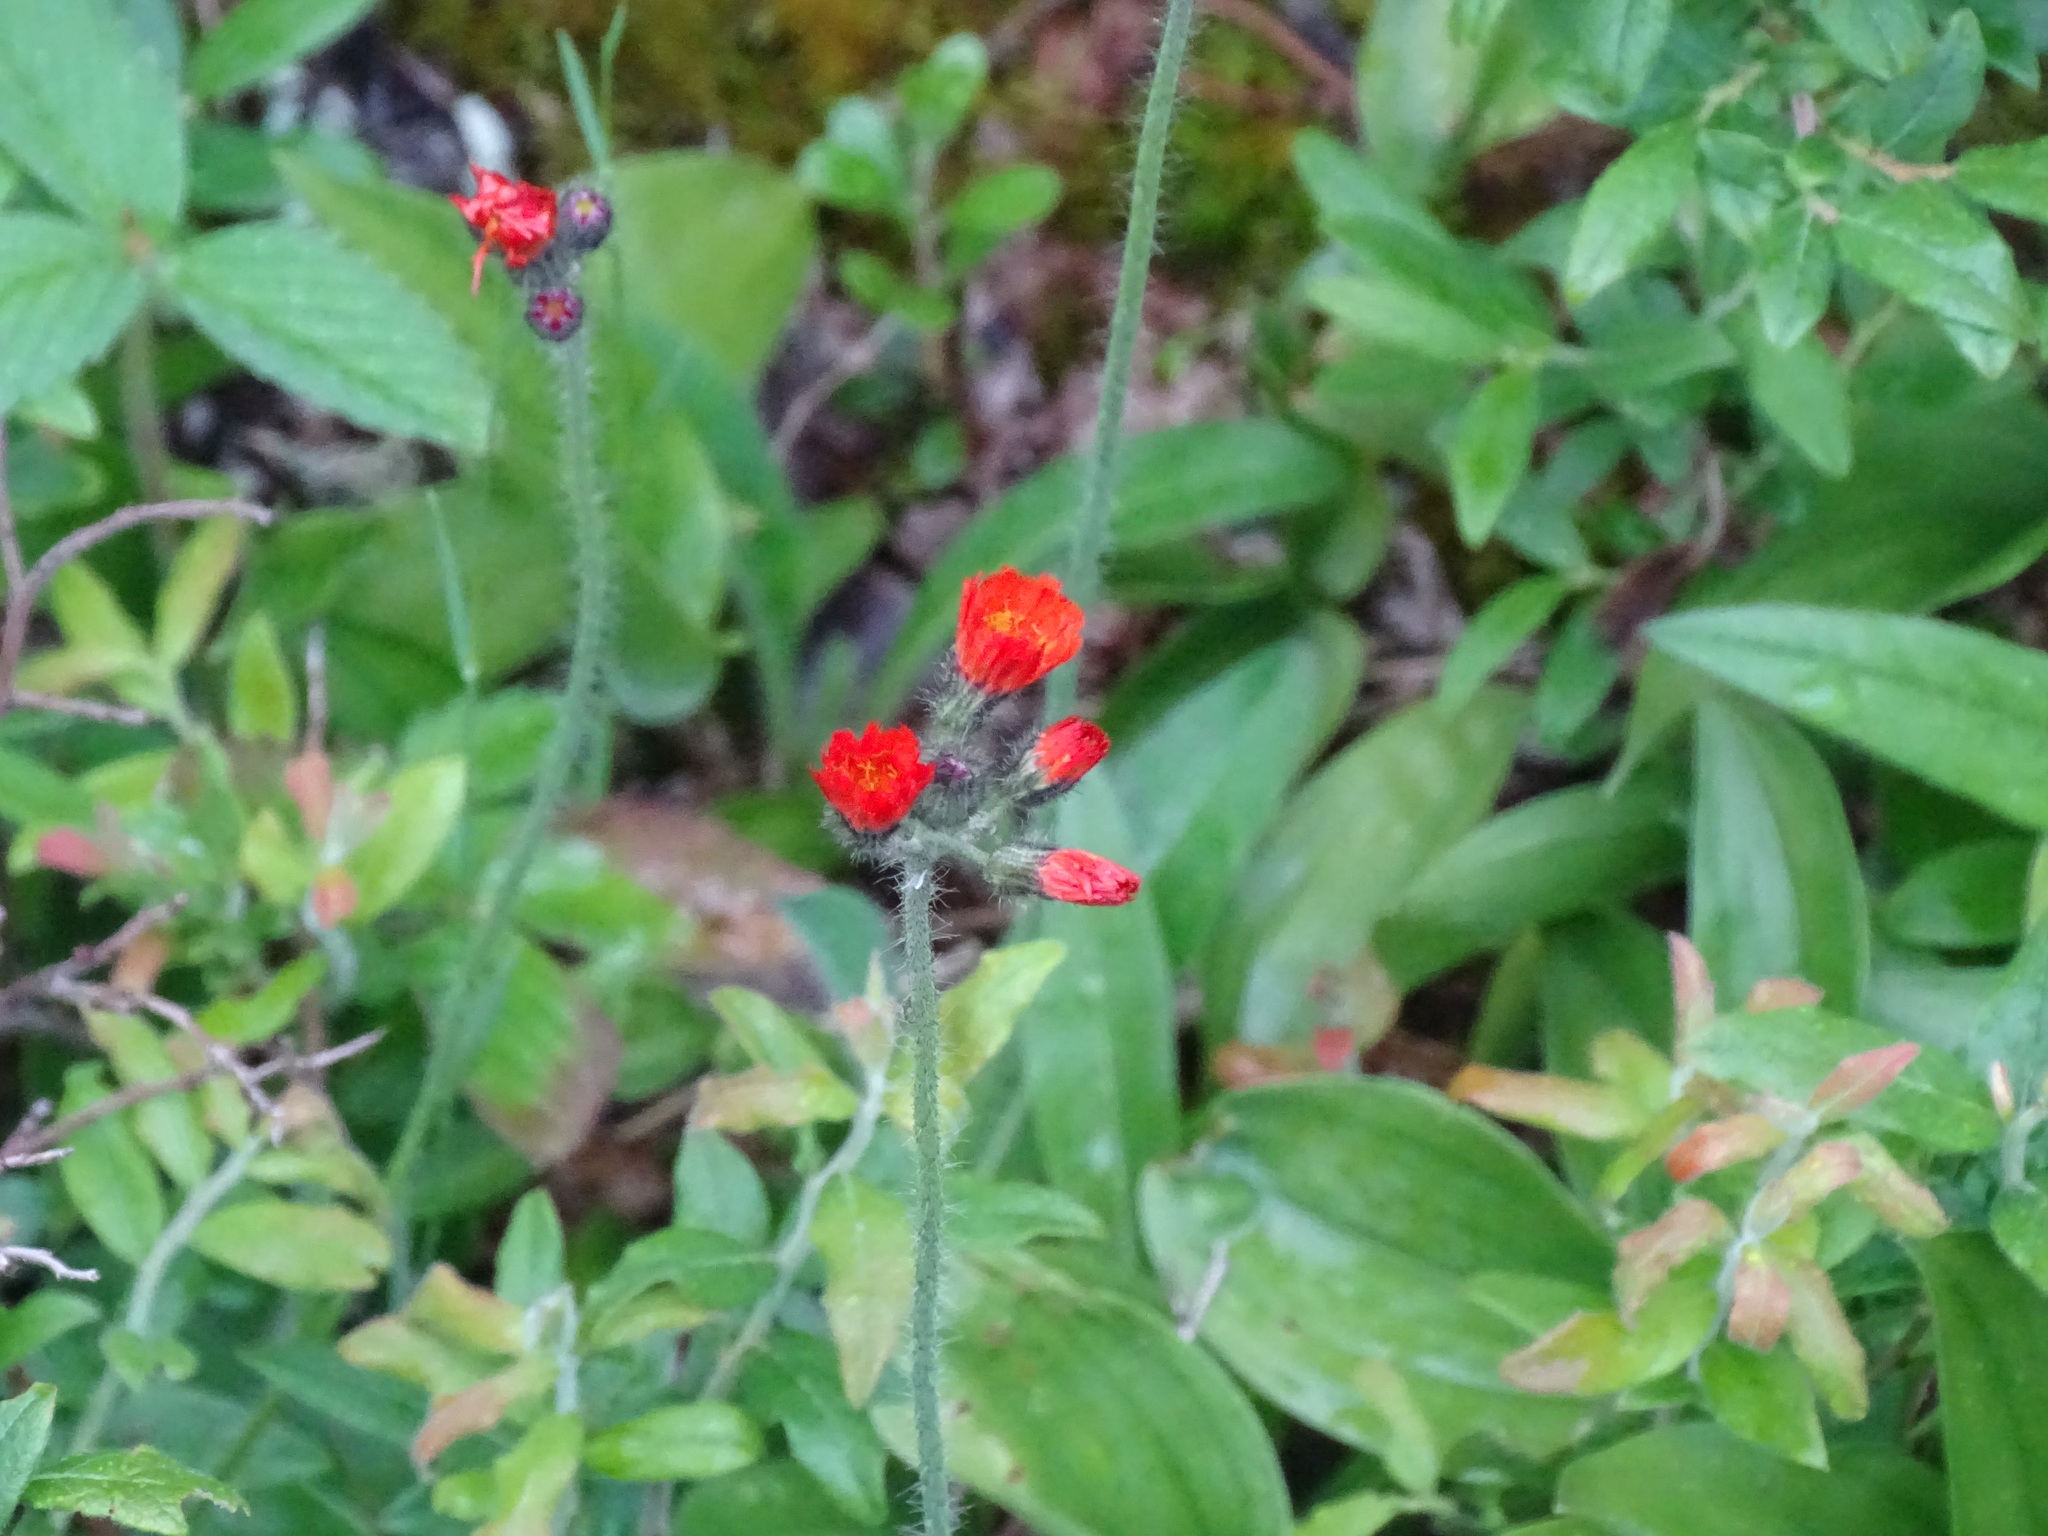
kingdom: Plantae
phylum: Tracheophyta
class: Magnoliopsida
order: Asterales
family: Asteraceae
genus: Pilosella
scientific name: Pilosella aurantiaca
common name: Fox-and-cubs
